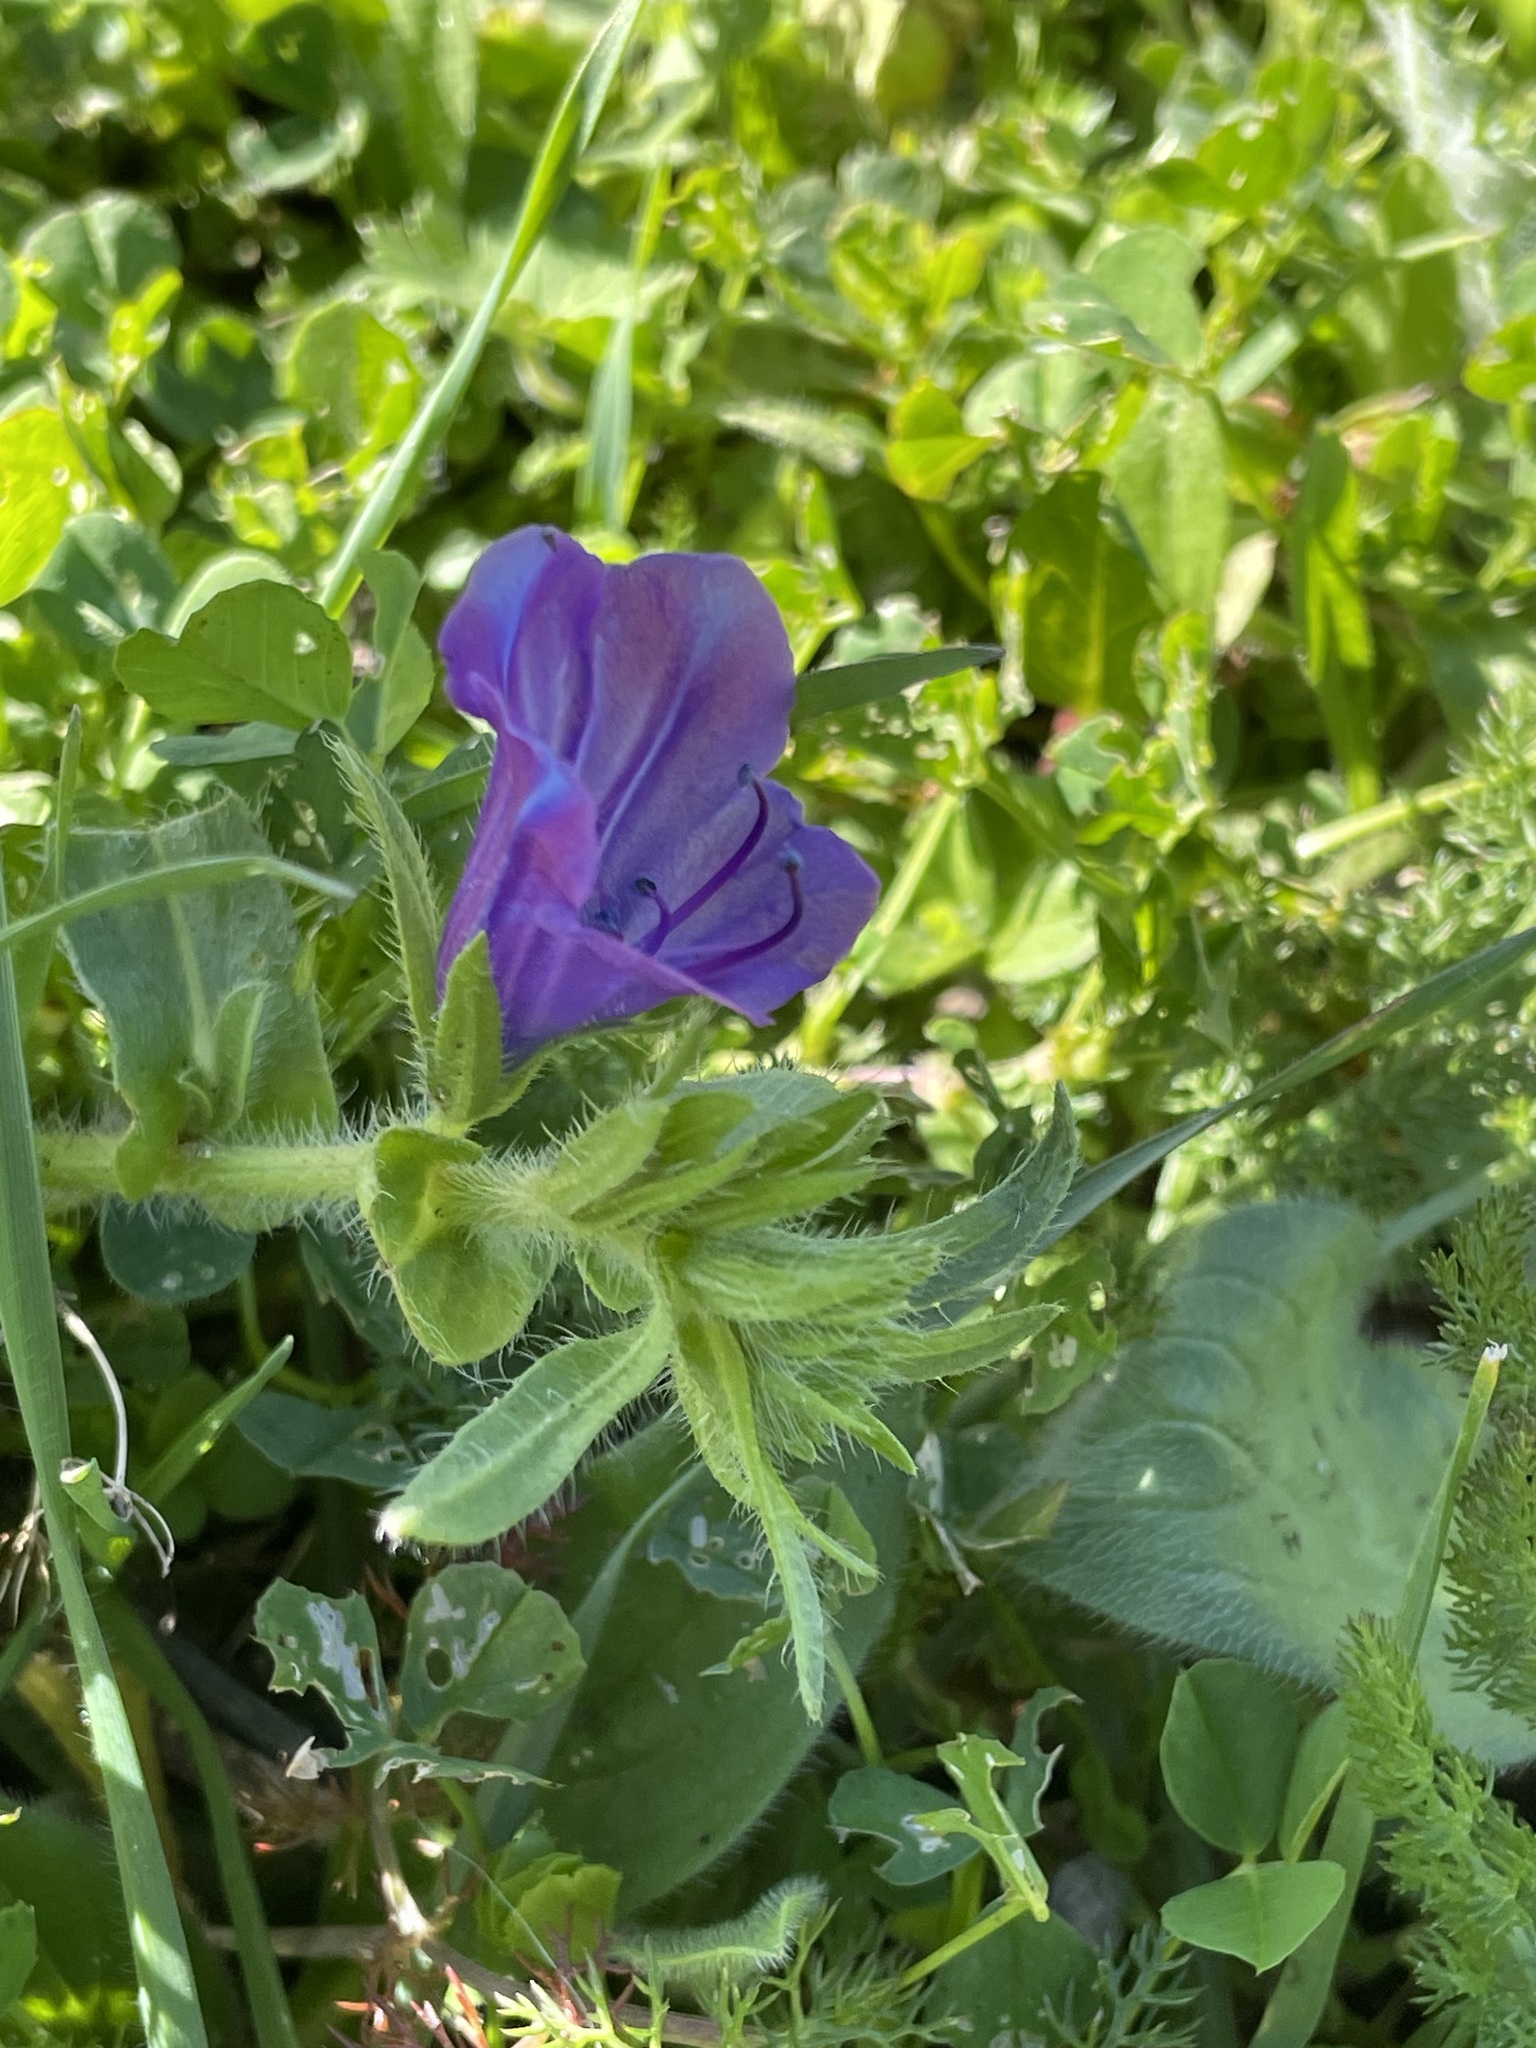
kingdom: Plantae
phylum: Tracheophyta
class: Magnoliopsida
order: Boraginales
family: Boraginaceae
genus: Echium
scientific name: Echium plantagineum
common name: Purple viper's-bugloss
